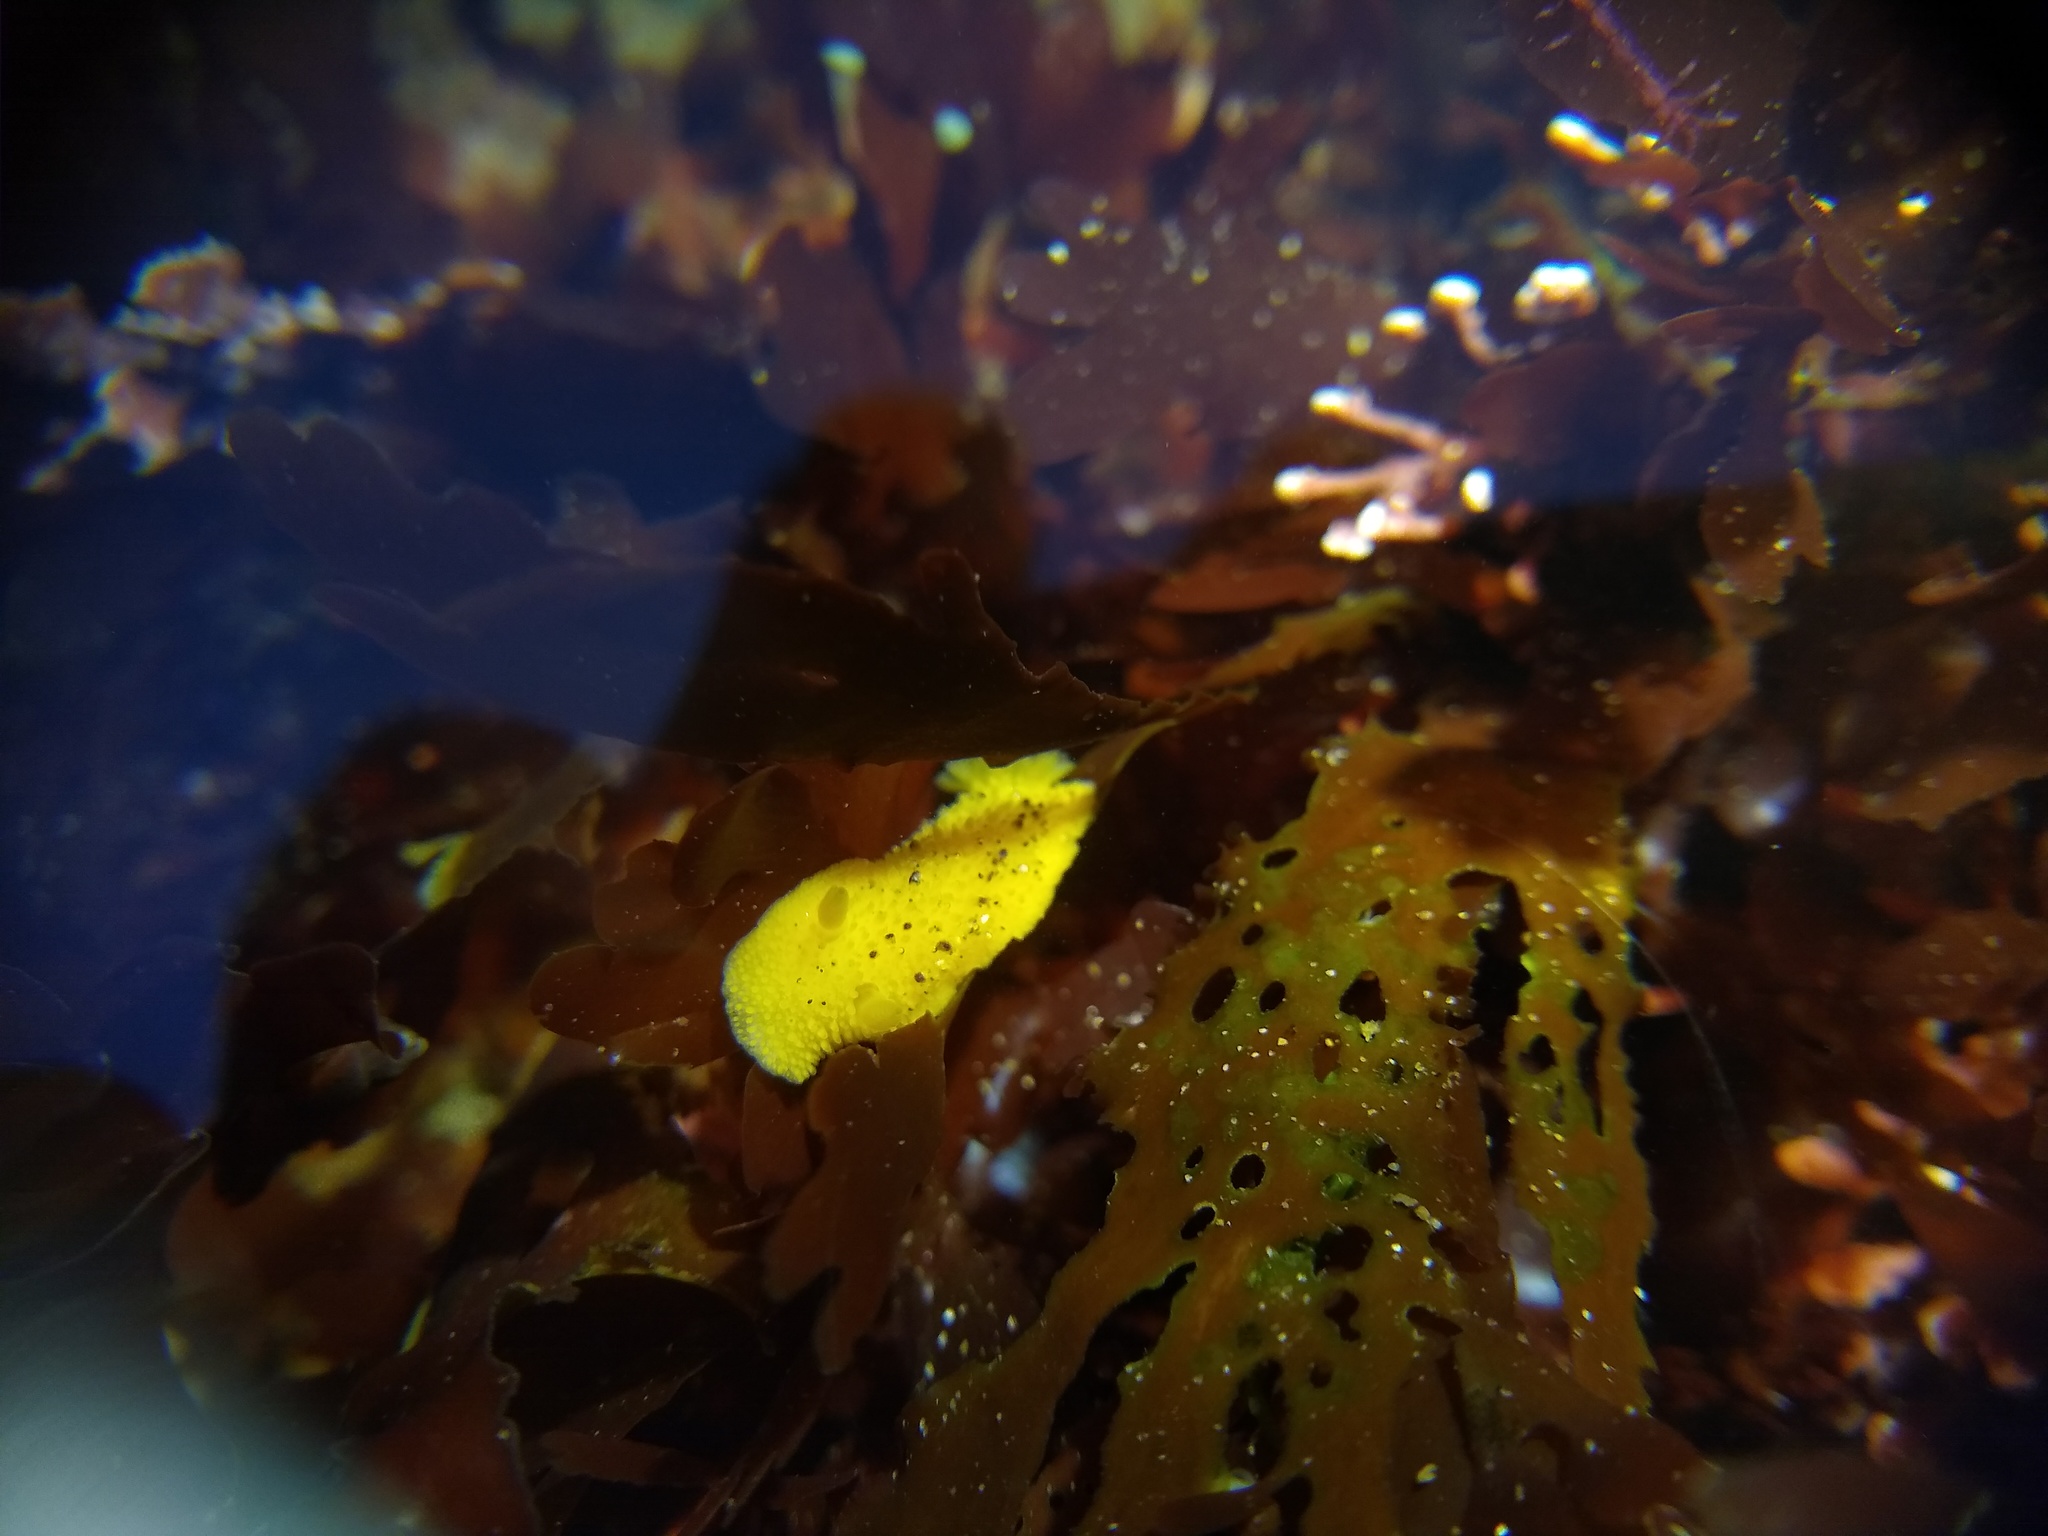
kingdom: Animalia
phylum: Mollusca
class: Gastropoda
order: Nudibranchia
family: Dorididae
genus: Doris
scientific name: Doris montereyensis
